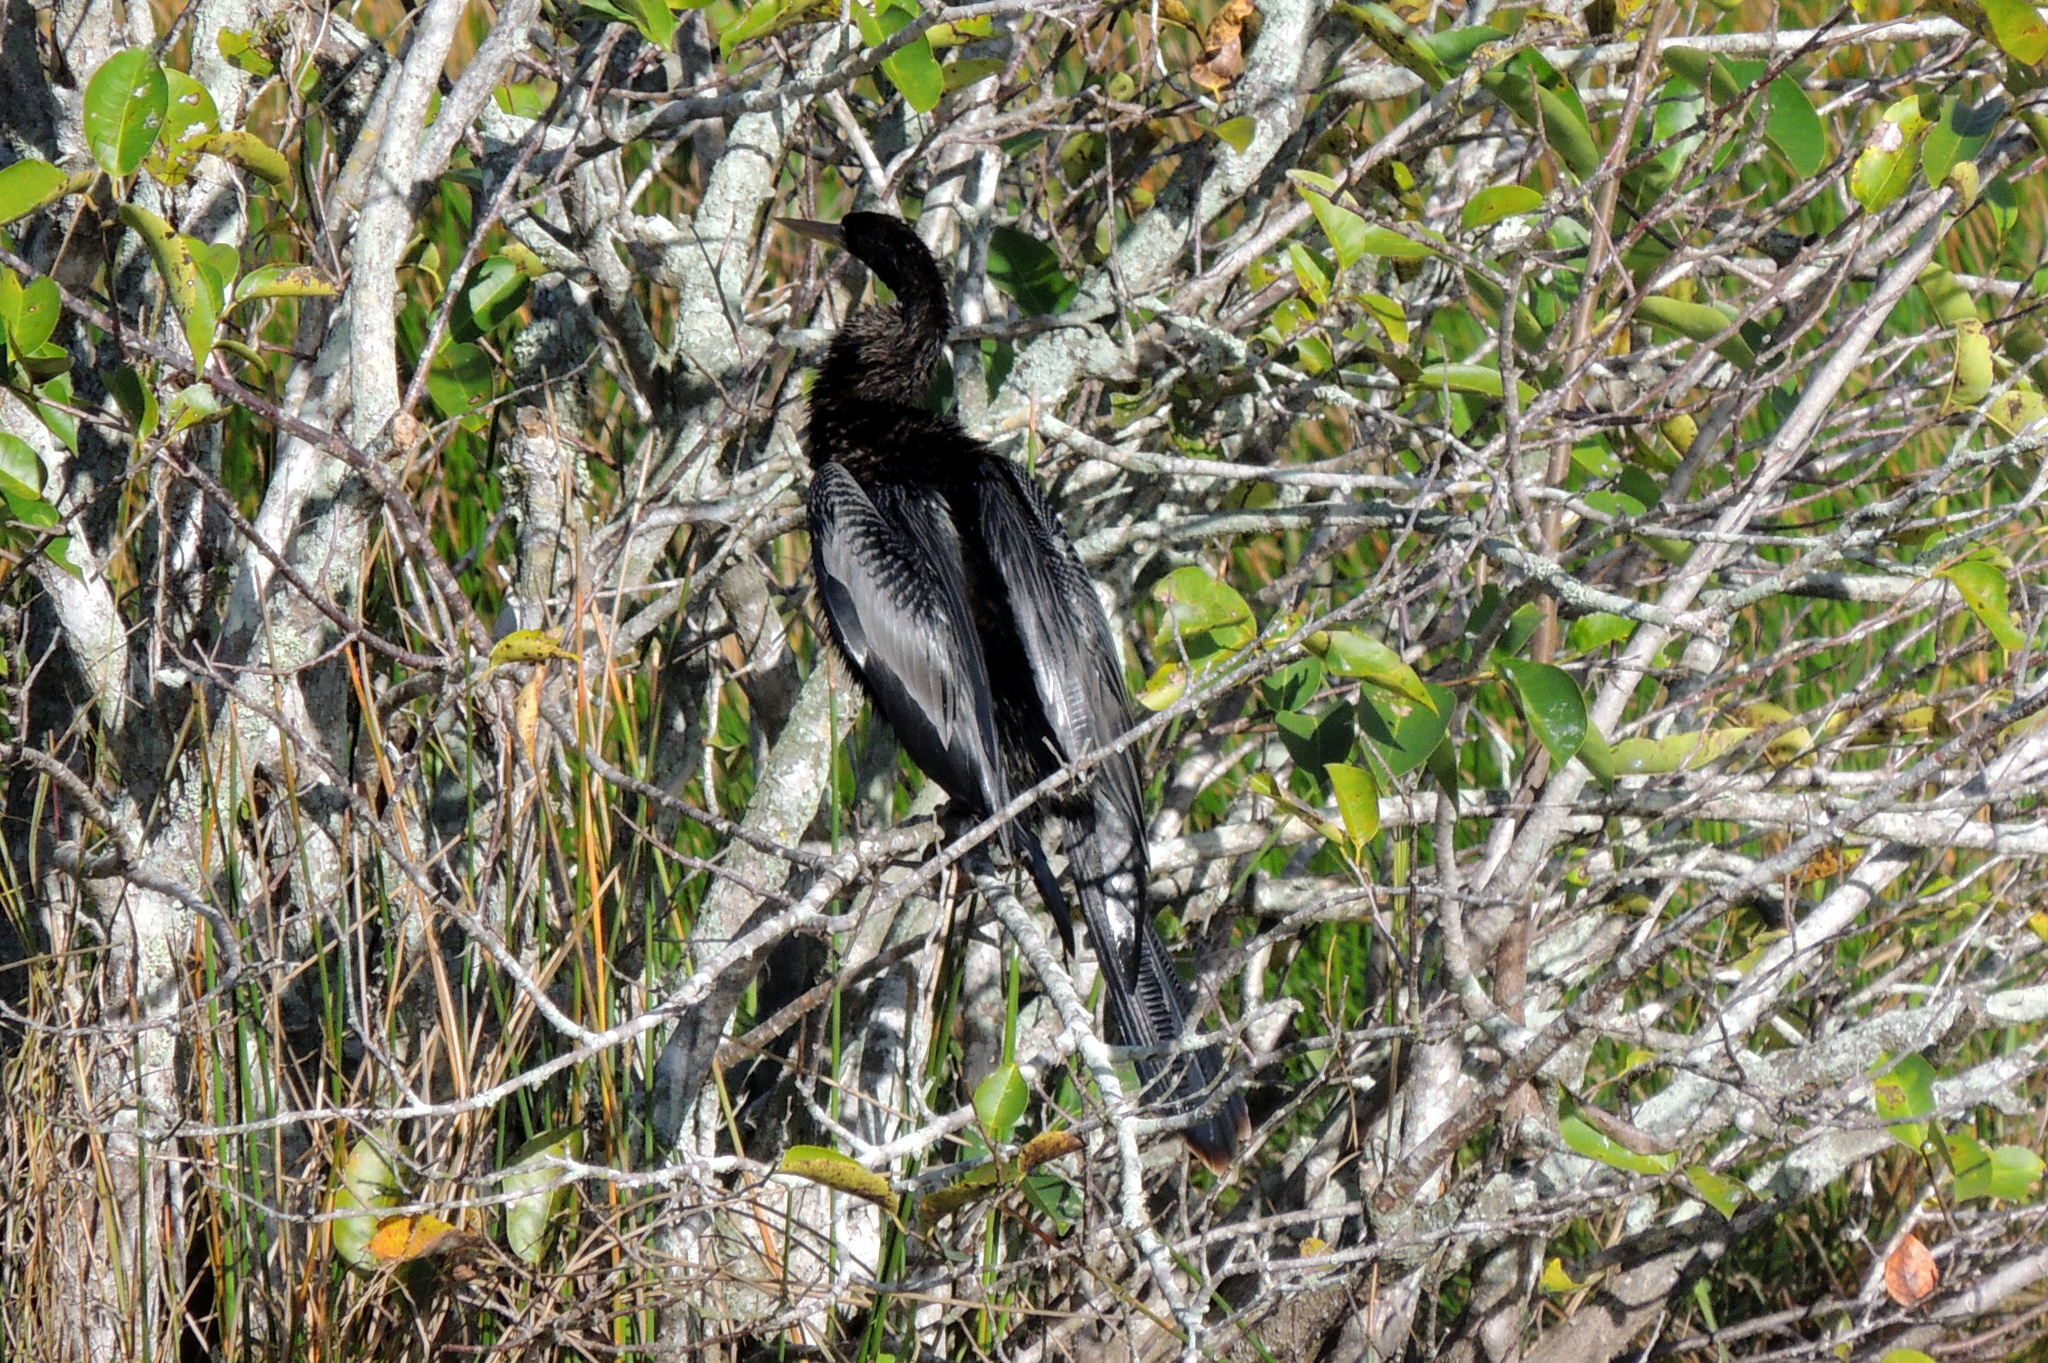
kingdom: Animalia
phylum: Chordata
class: Aves
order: Suliformes
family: Anhingidae
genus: Anhinga
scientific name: Anhinga anhinga
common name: Anhinga
